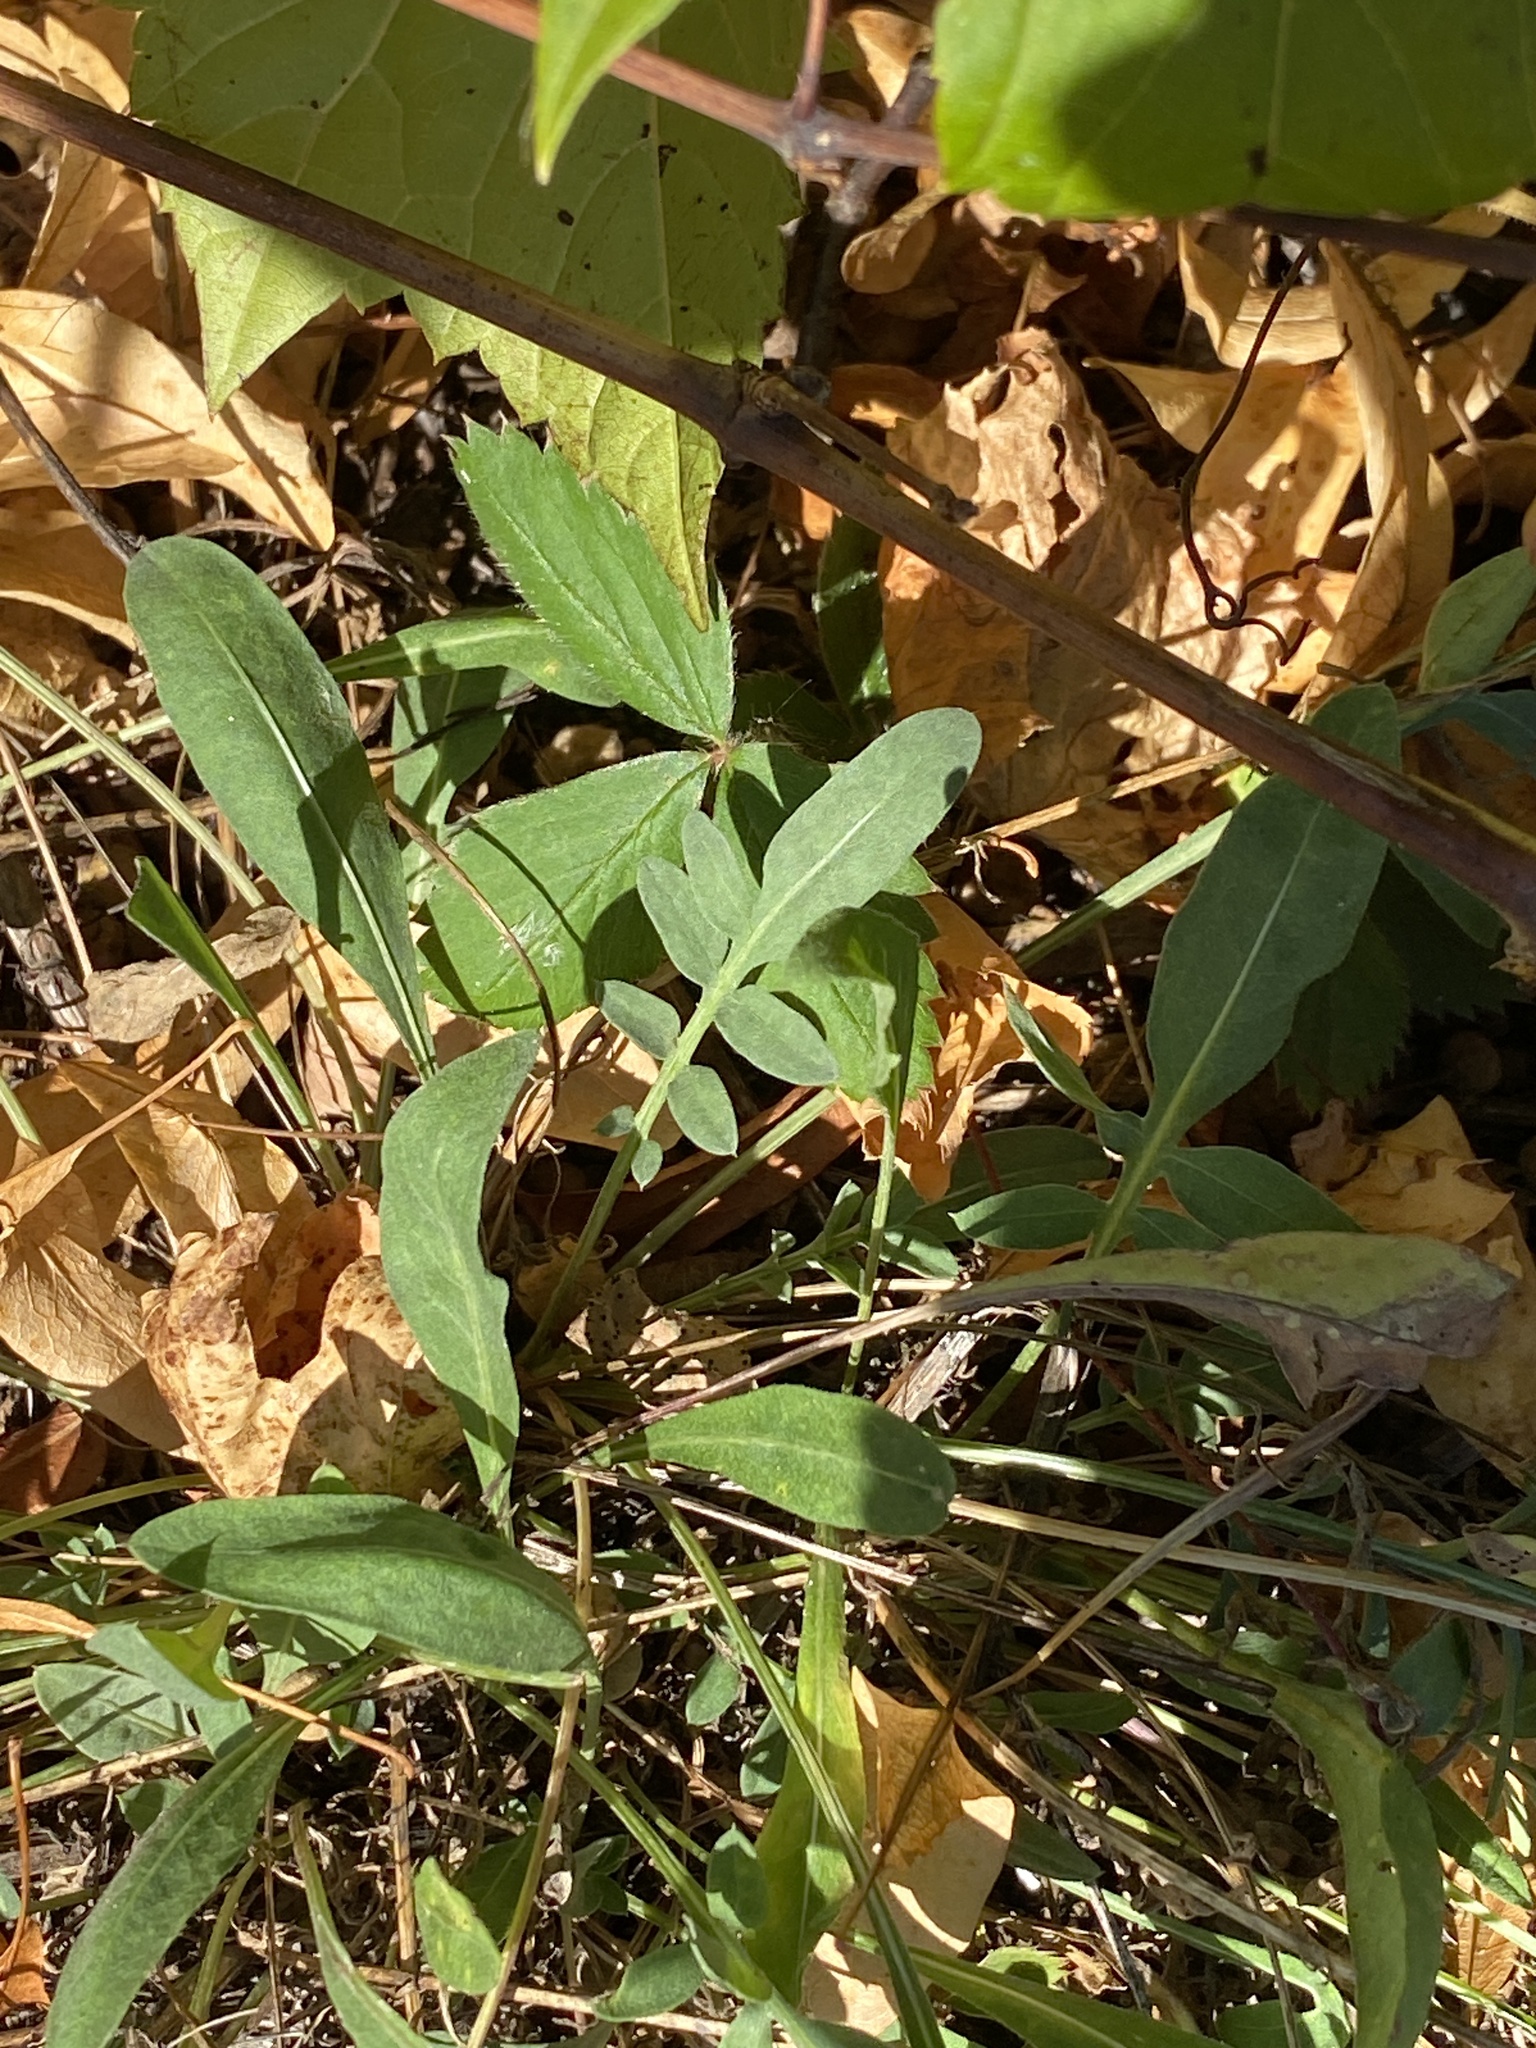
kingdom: Plantae
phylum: Tracheophyta
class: Magnoliopsida
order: Asterales
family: Asteraceae
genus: Centaurea
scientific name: Centaurea stoebe
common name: Spotted knapweed
